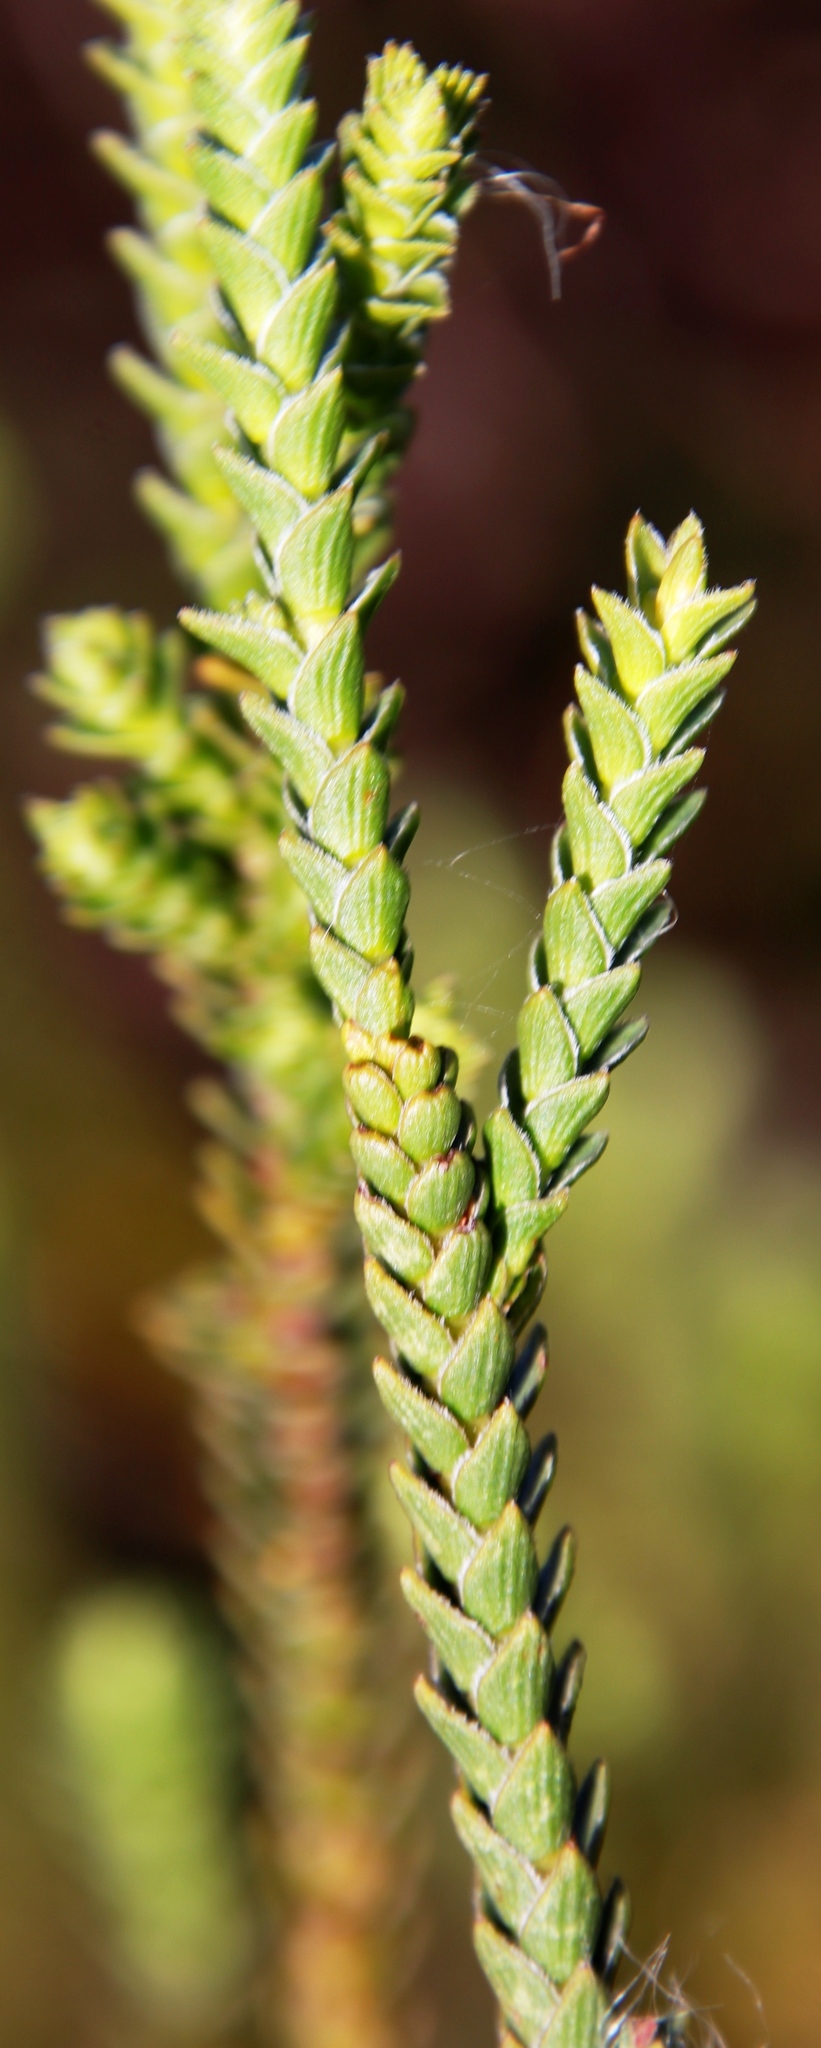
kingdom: Plantae
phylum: Tracheophyta
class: Magnoliopsida
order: Malvales
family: Thymelaeaceae
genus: Struthiola
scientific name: Struthiola striata
